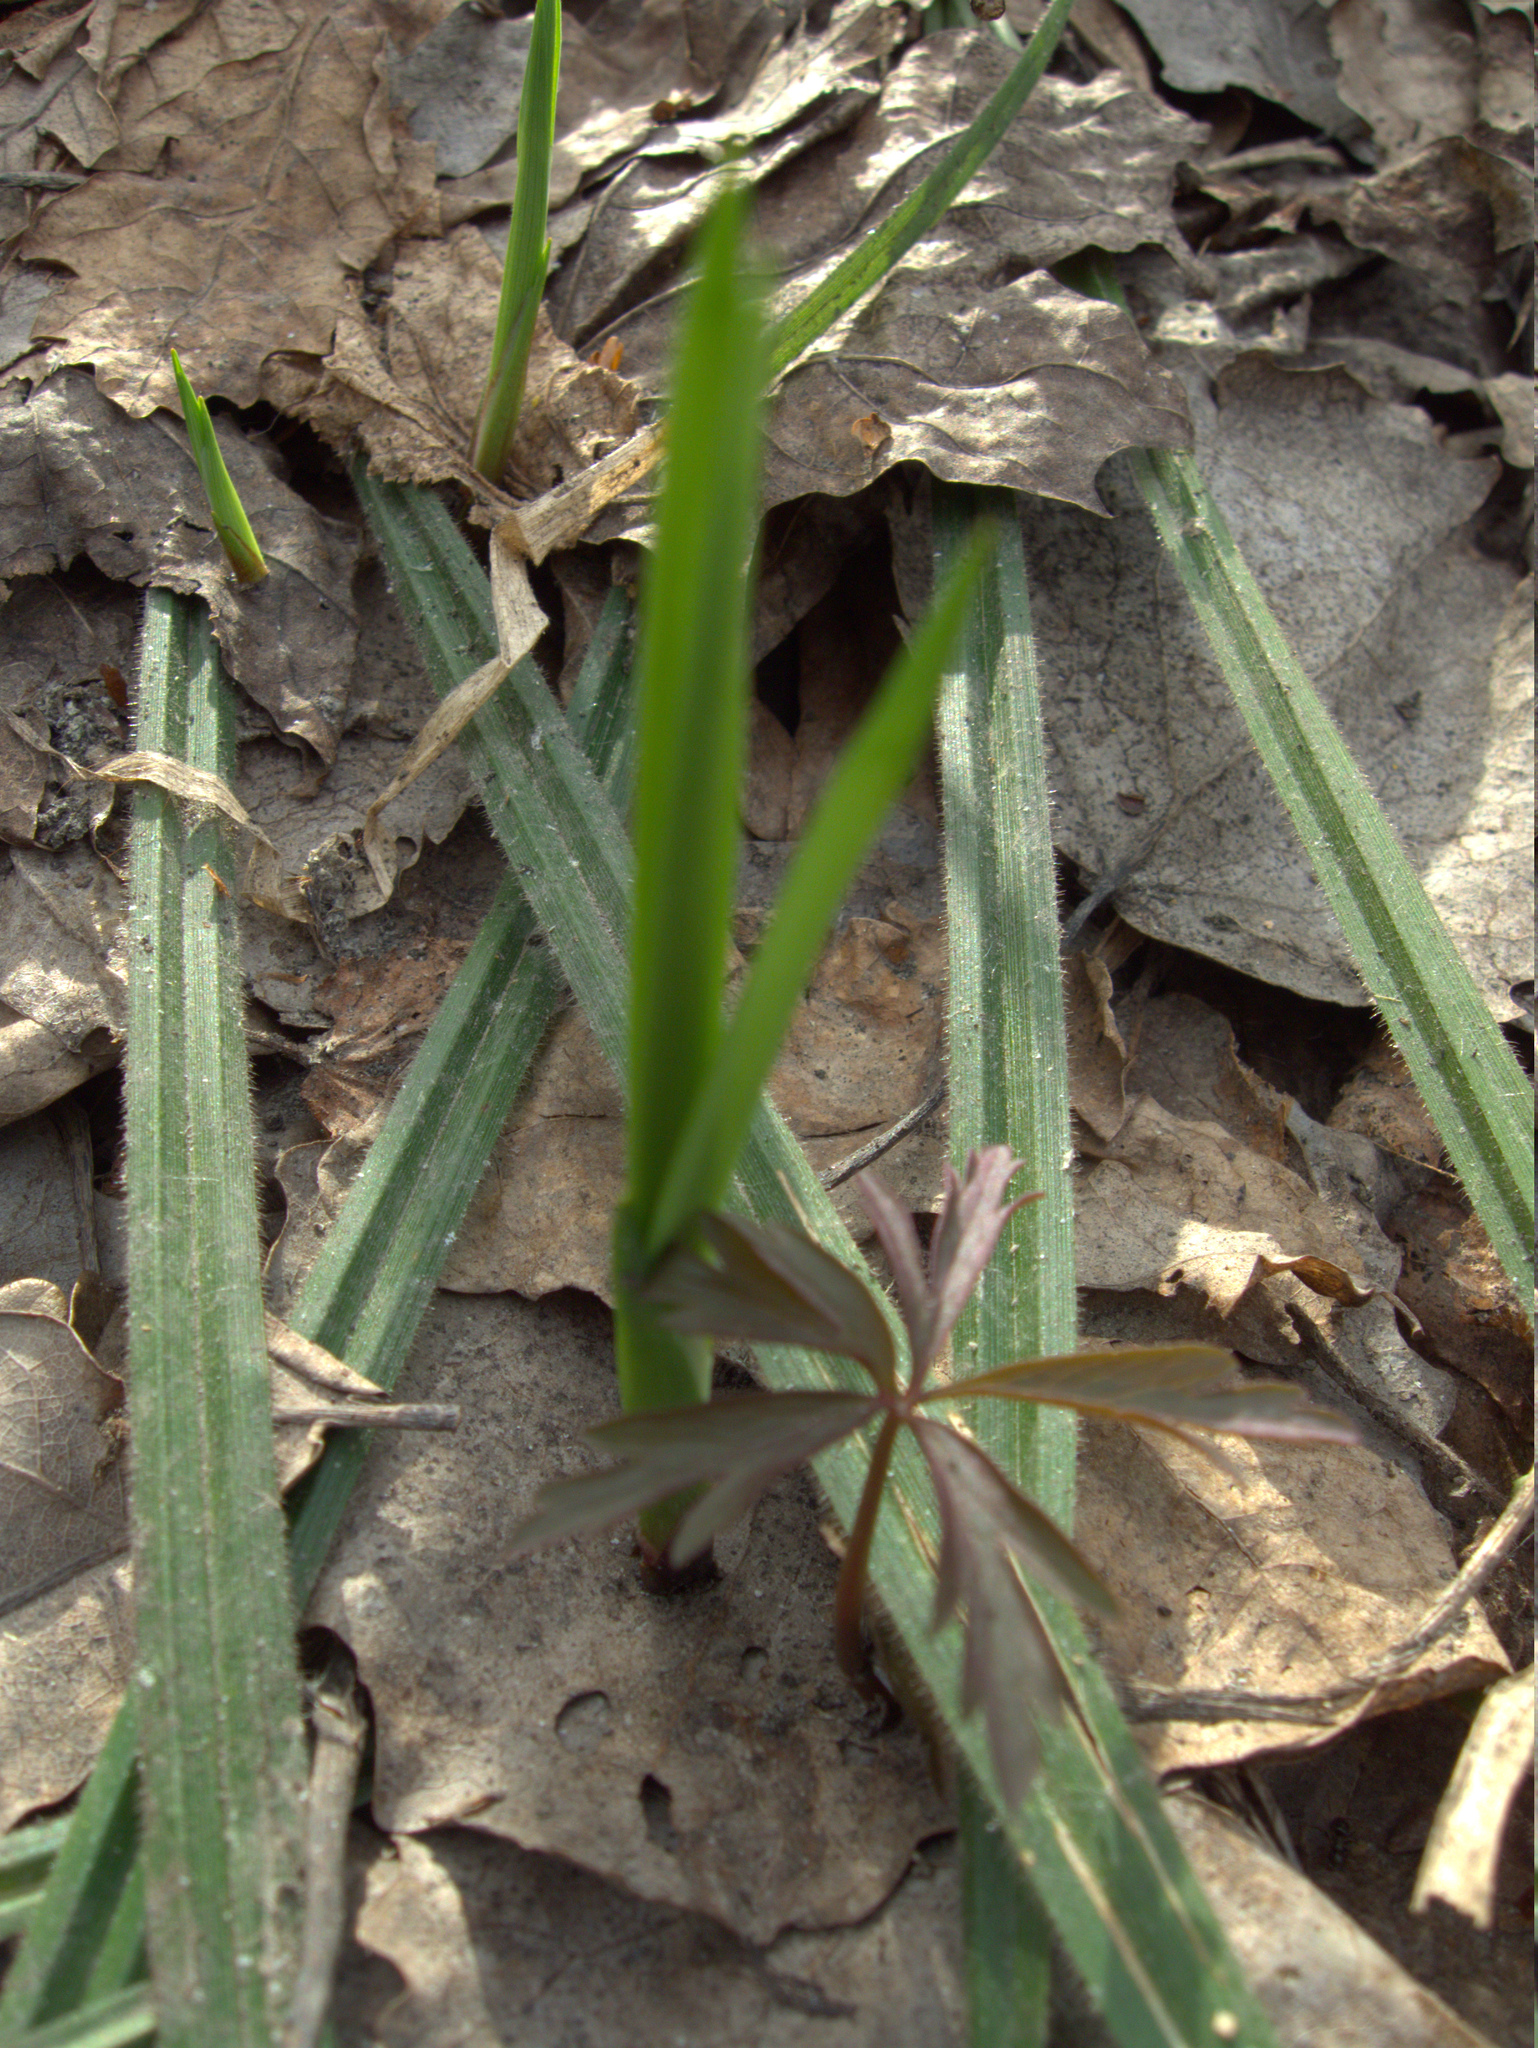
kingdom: Plantae
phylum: Tracheophyta
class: Magnoliopsida
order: Ranunculales
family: Ranunculaceae
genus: Anemone
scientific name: Anemone ranunculoides
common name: Yellow anemone
